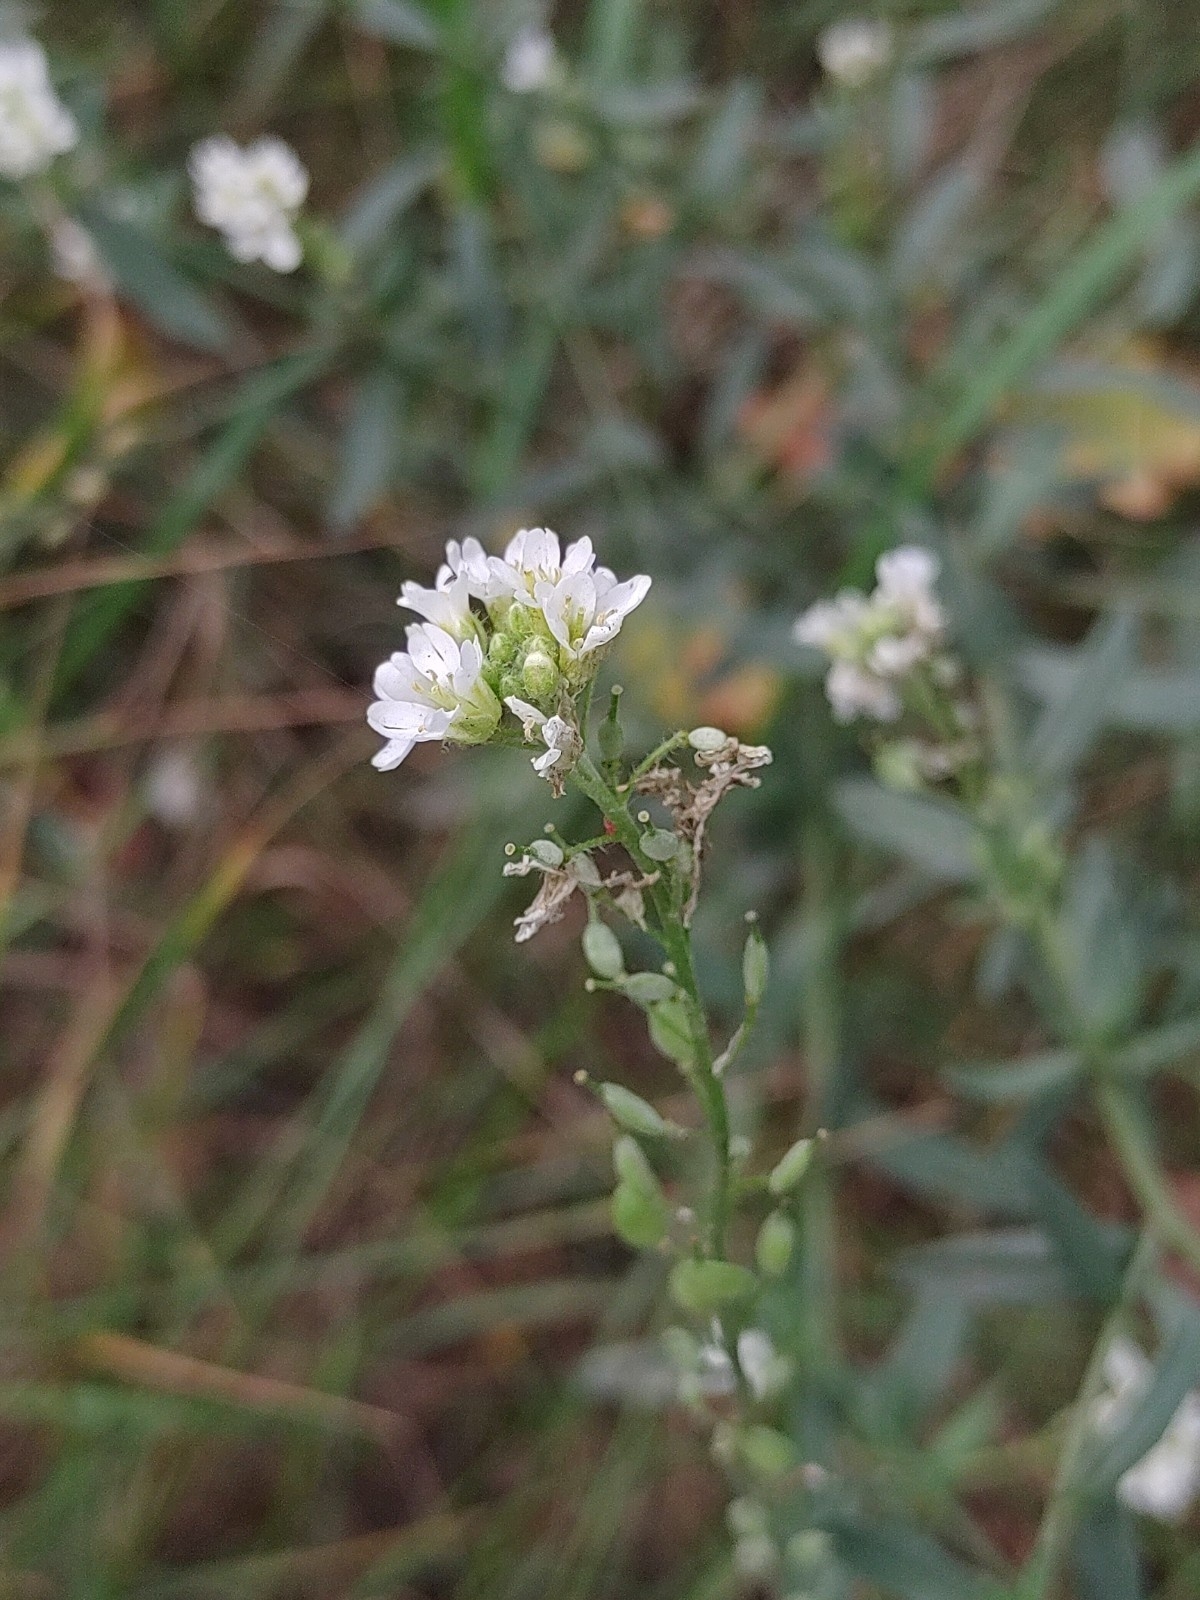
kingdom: Plantae
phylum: Tracheophyta
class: Magnoliopsida
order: Brassicales
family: Brassicaceae
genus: Berteroa
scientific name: Berteroa incana
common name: Hoary alison
